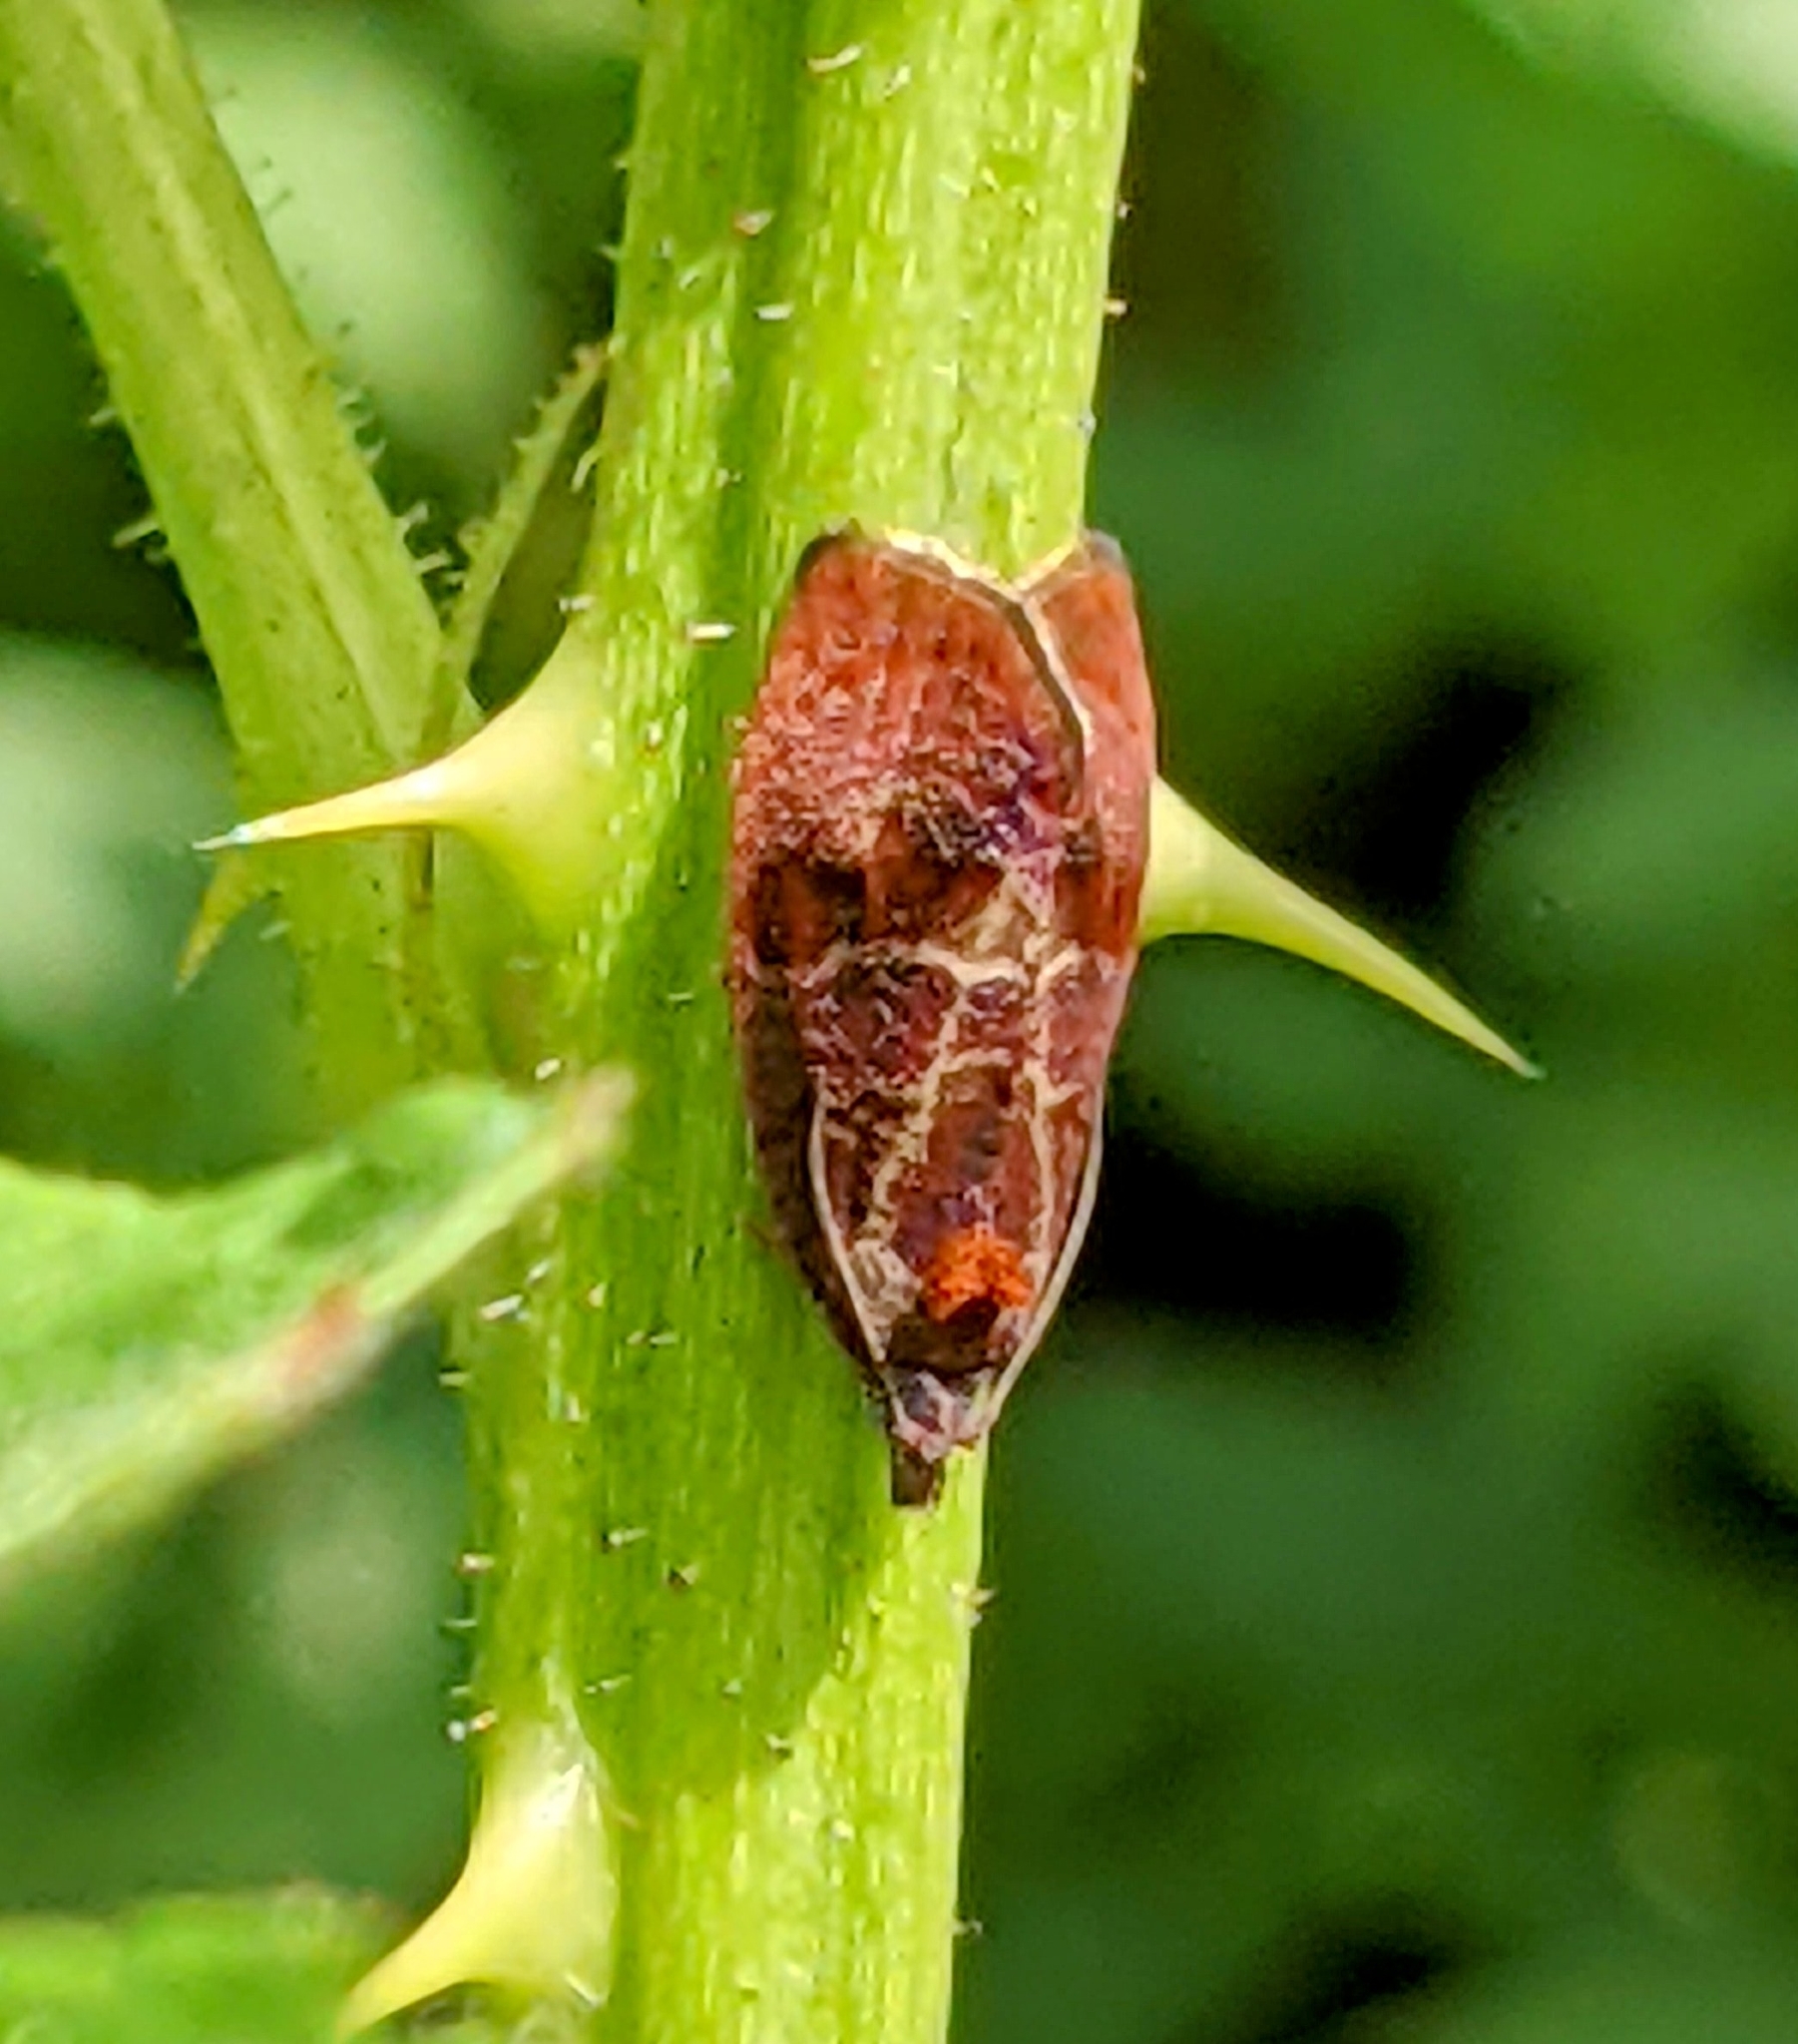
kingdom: Animalia
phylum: Arthropoda
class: Insecta
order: Lepidoptera
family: Tortricidae
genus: Evora
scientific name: Evora hemidesma
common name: Spirea leaftier moth
